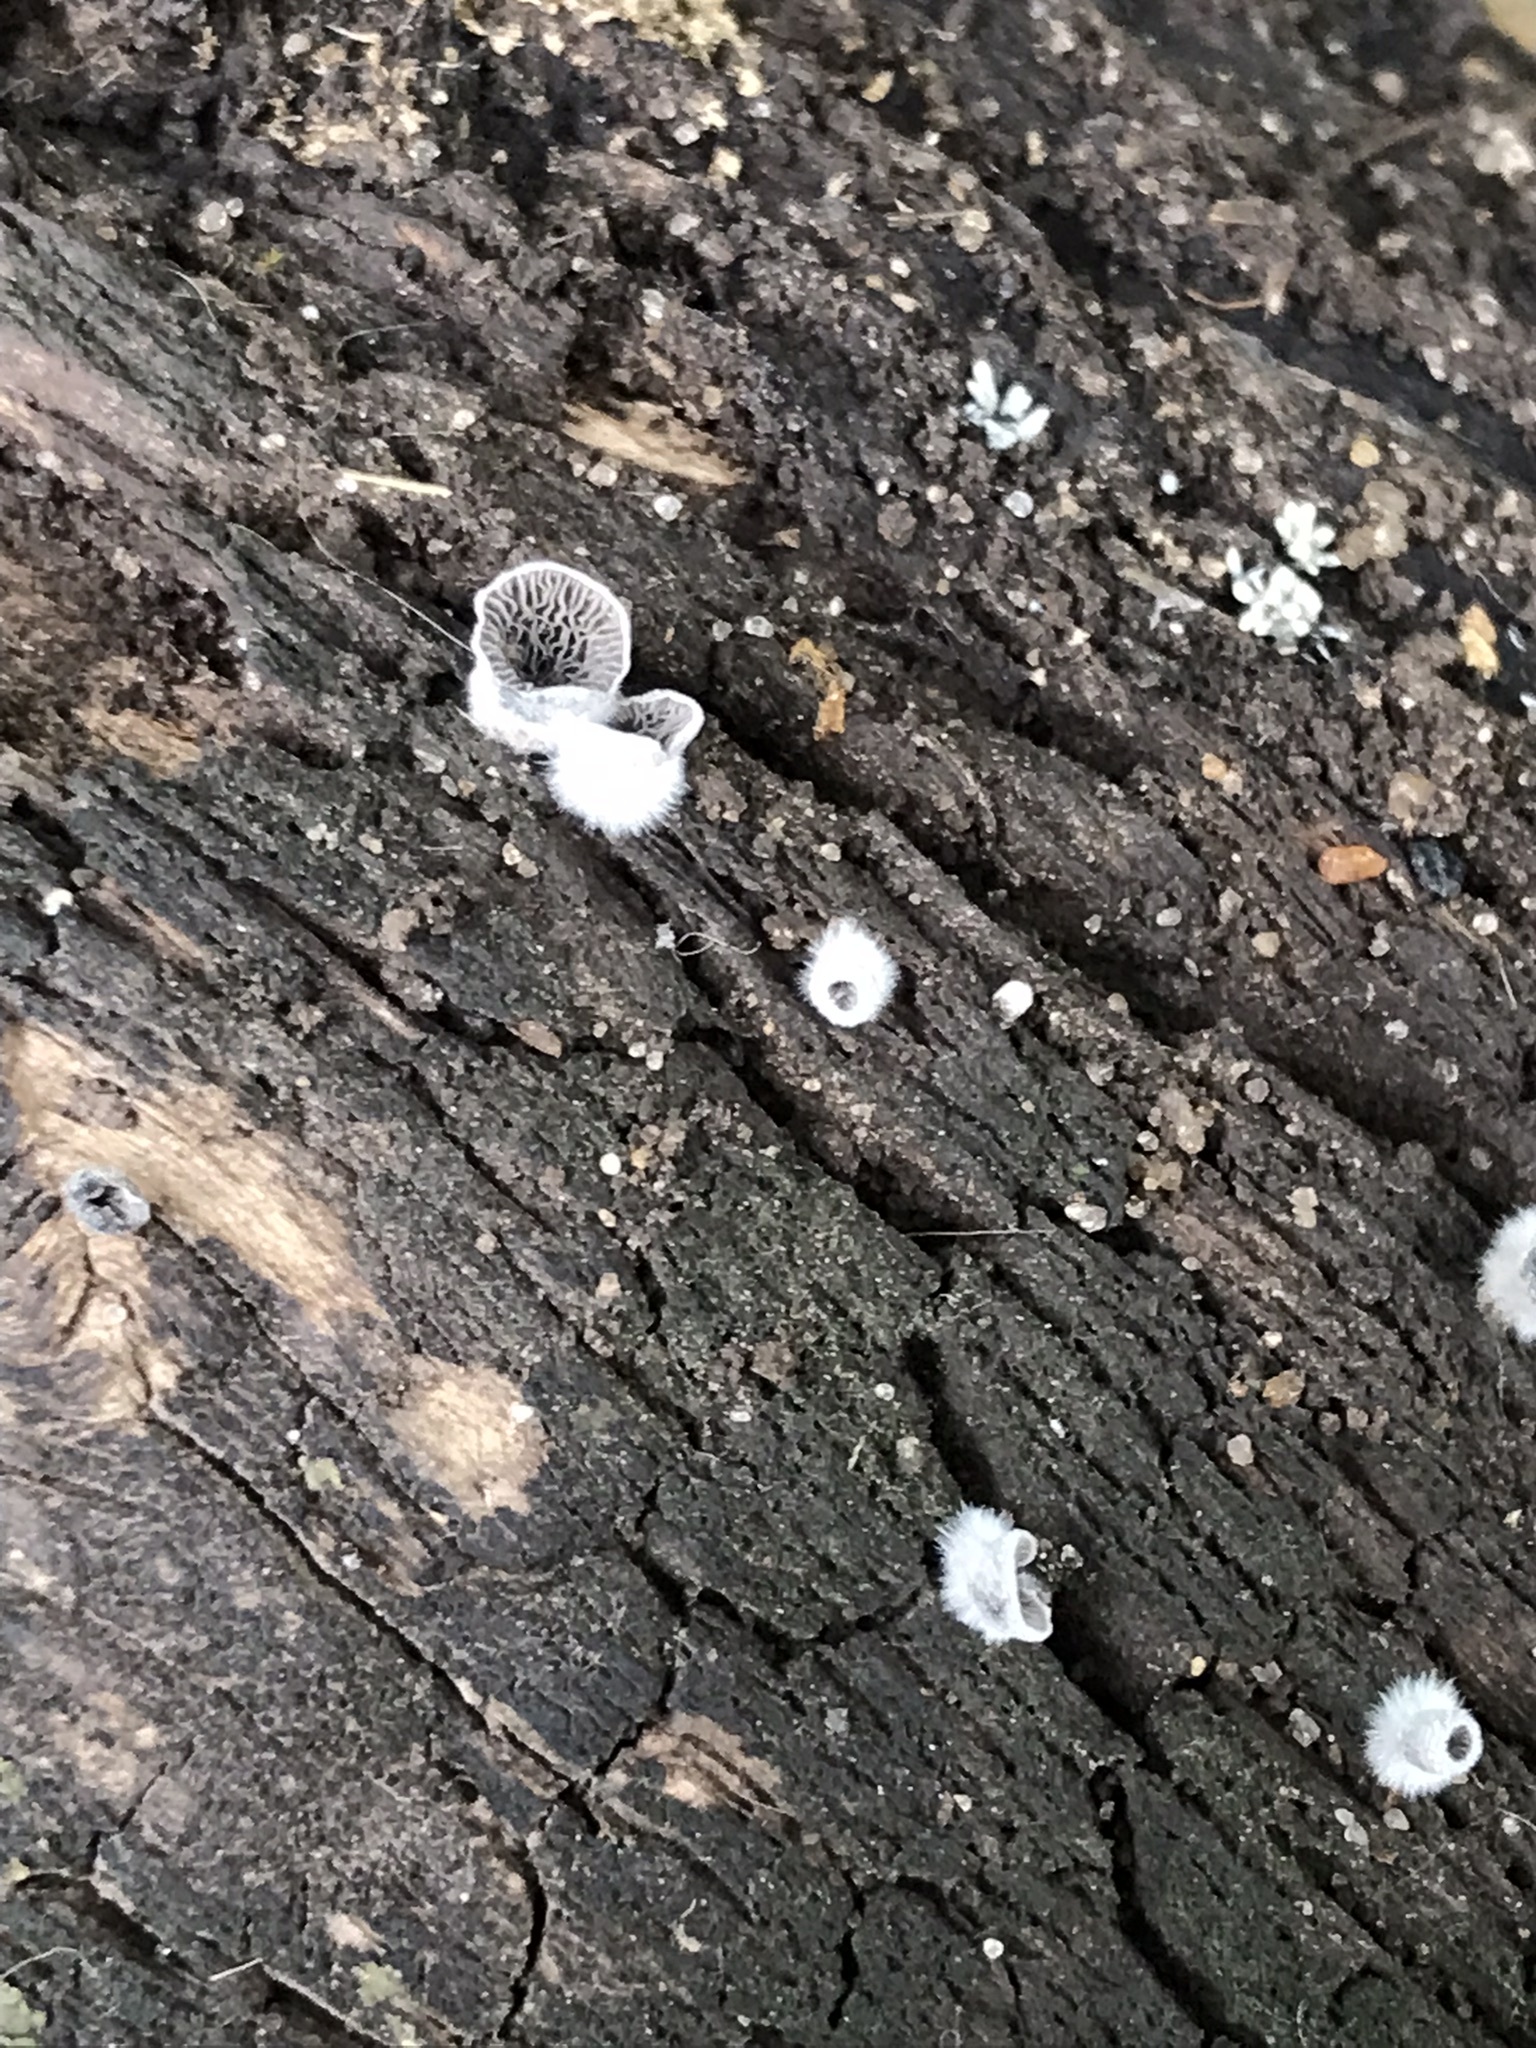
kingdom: Fungi
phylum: Basidiomycota
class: Agaricomycetes
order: Agaricales
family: Pleurotaceae
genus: Resupinatus
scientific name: Resupinatus applicatus
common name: Smoked oysterling
